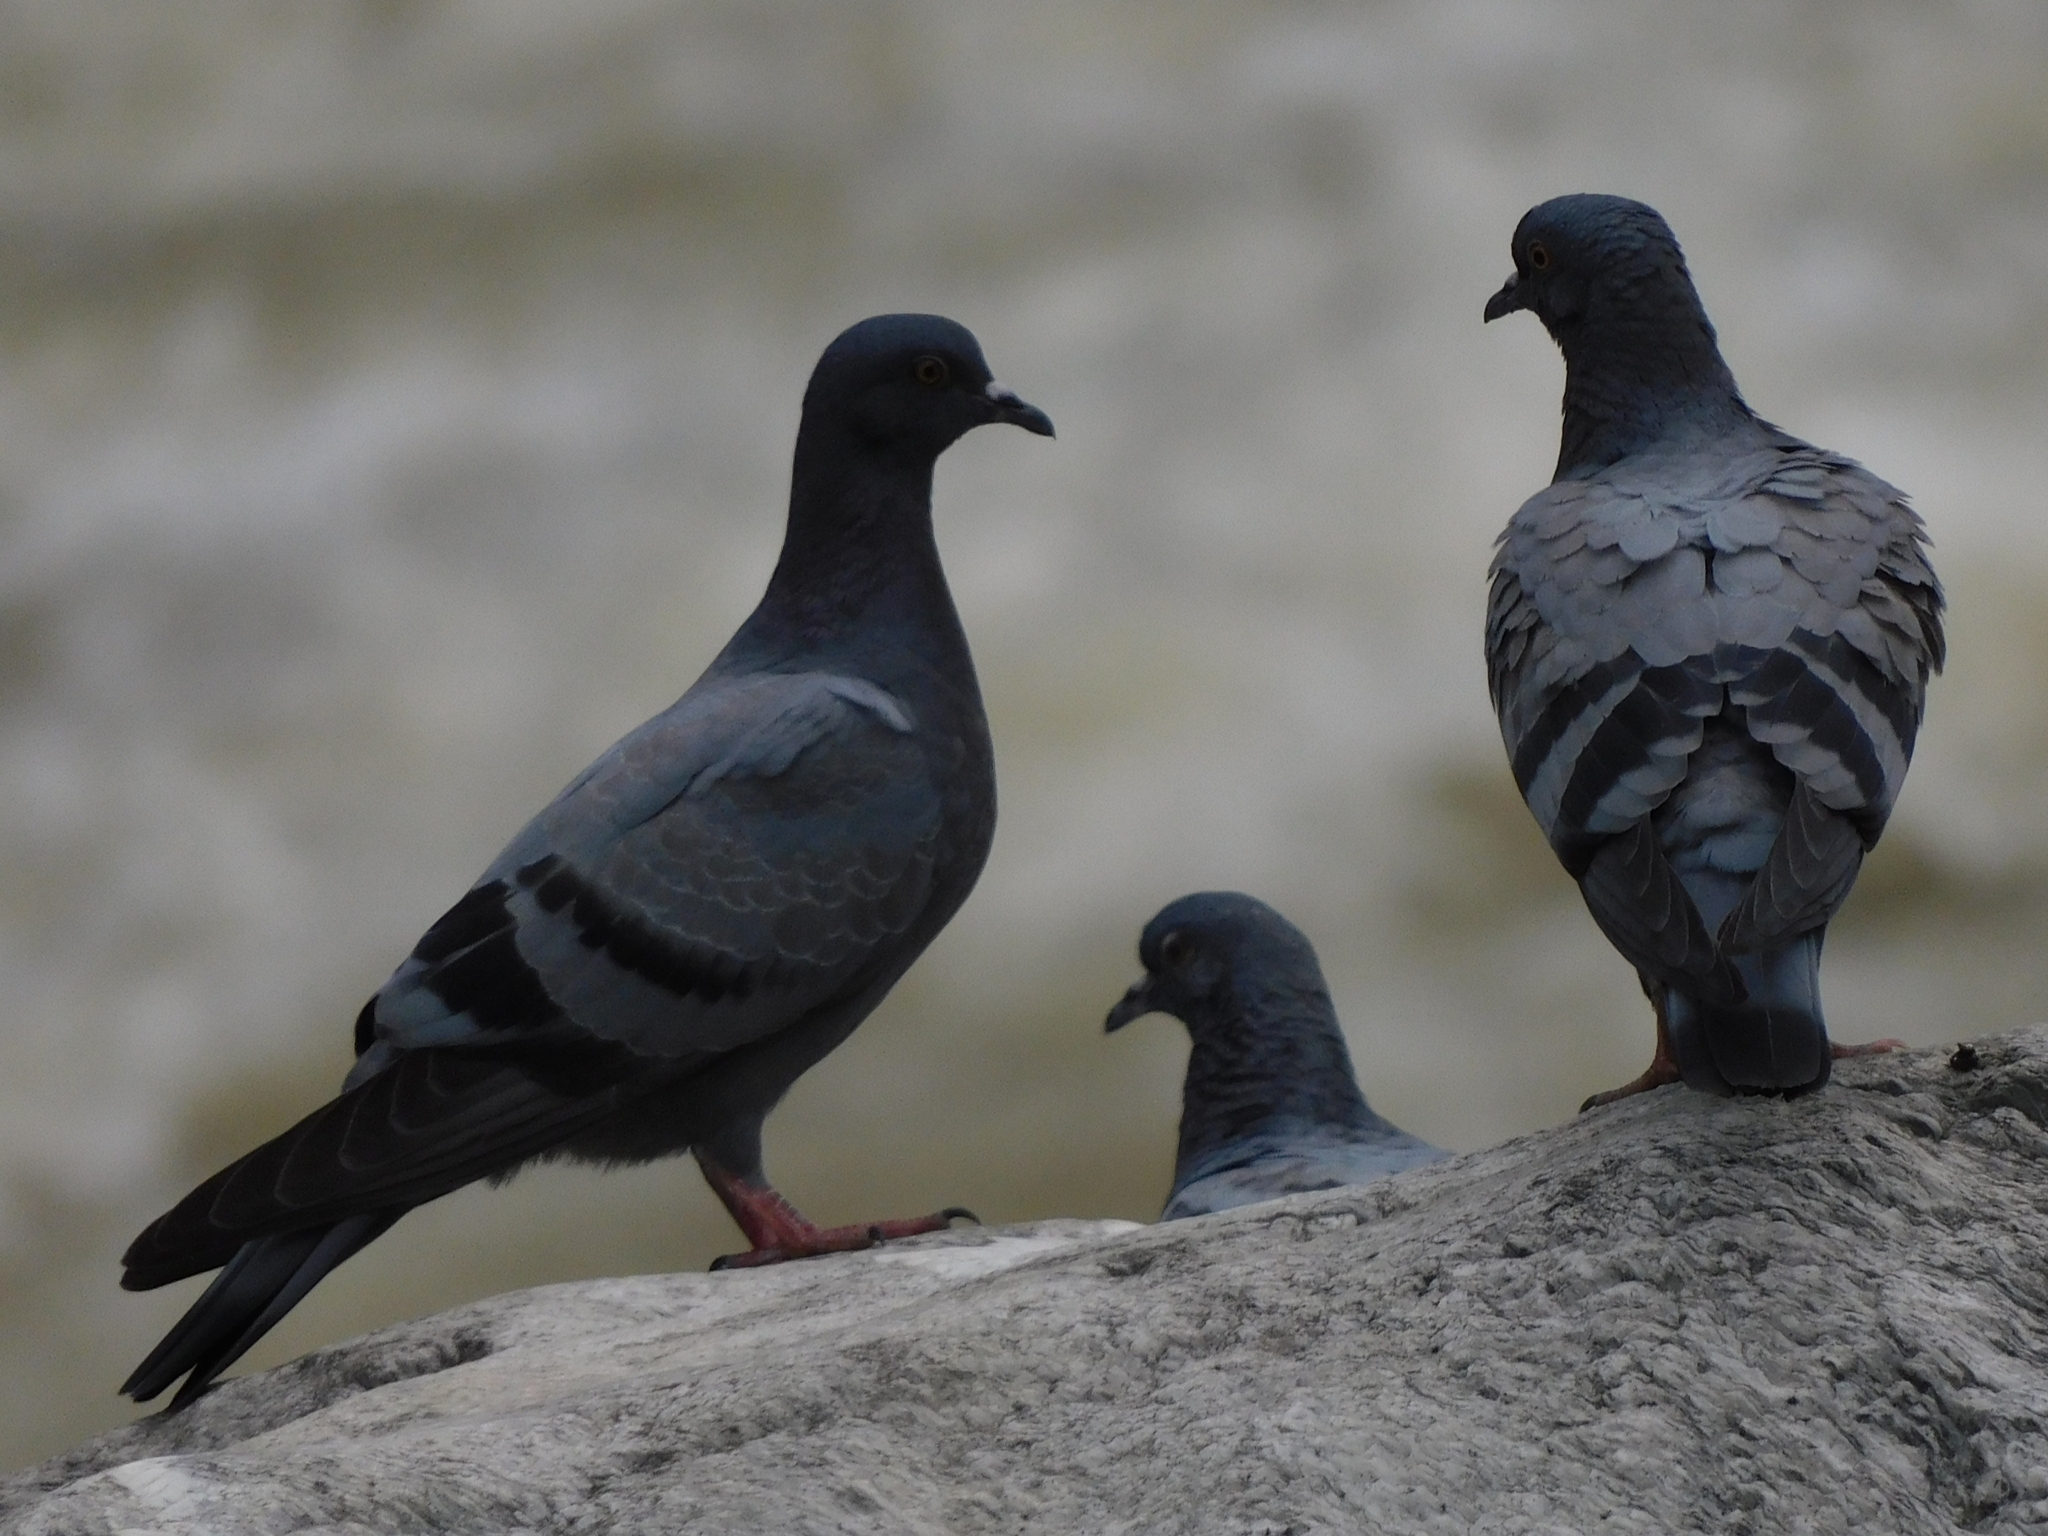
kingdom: Animalia
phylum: Chordata
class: Aves
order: Columbiformes
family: Columbidae
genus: Columba
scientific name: Columba livia
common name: Rock pigeon
